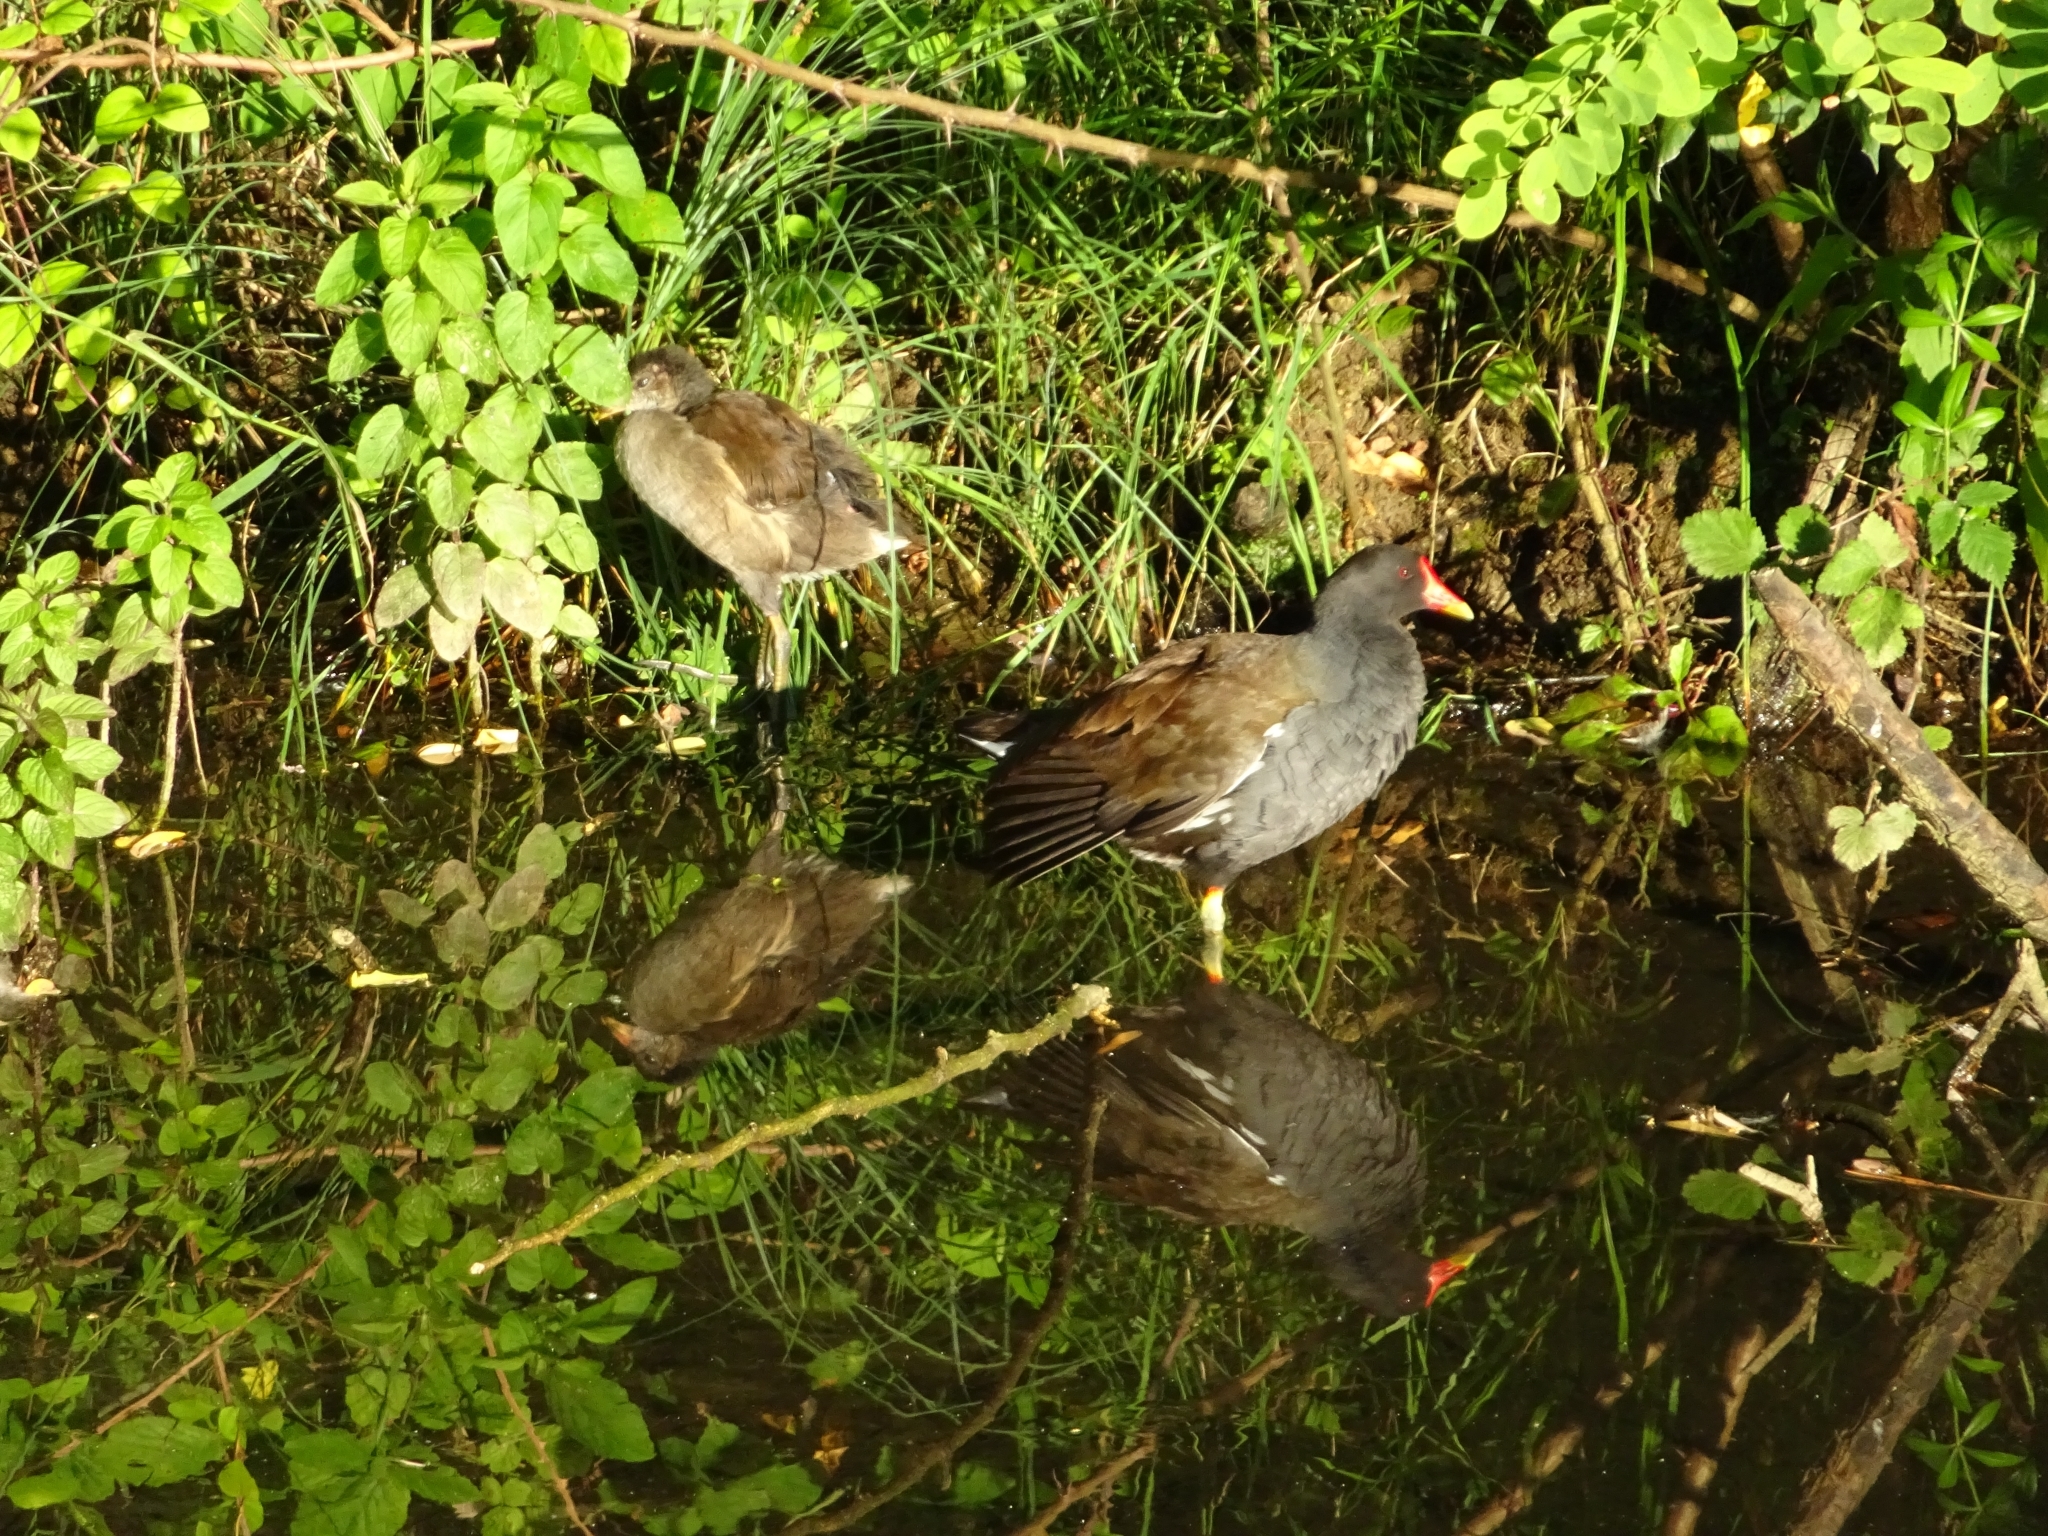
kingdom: Animalia
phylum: Chordata
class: Aves
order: Gruiformes
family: Rallidae
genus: Gallinula
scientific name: Gallinula chloropus
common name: Common moorhen
